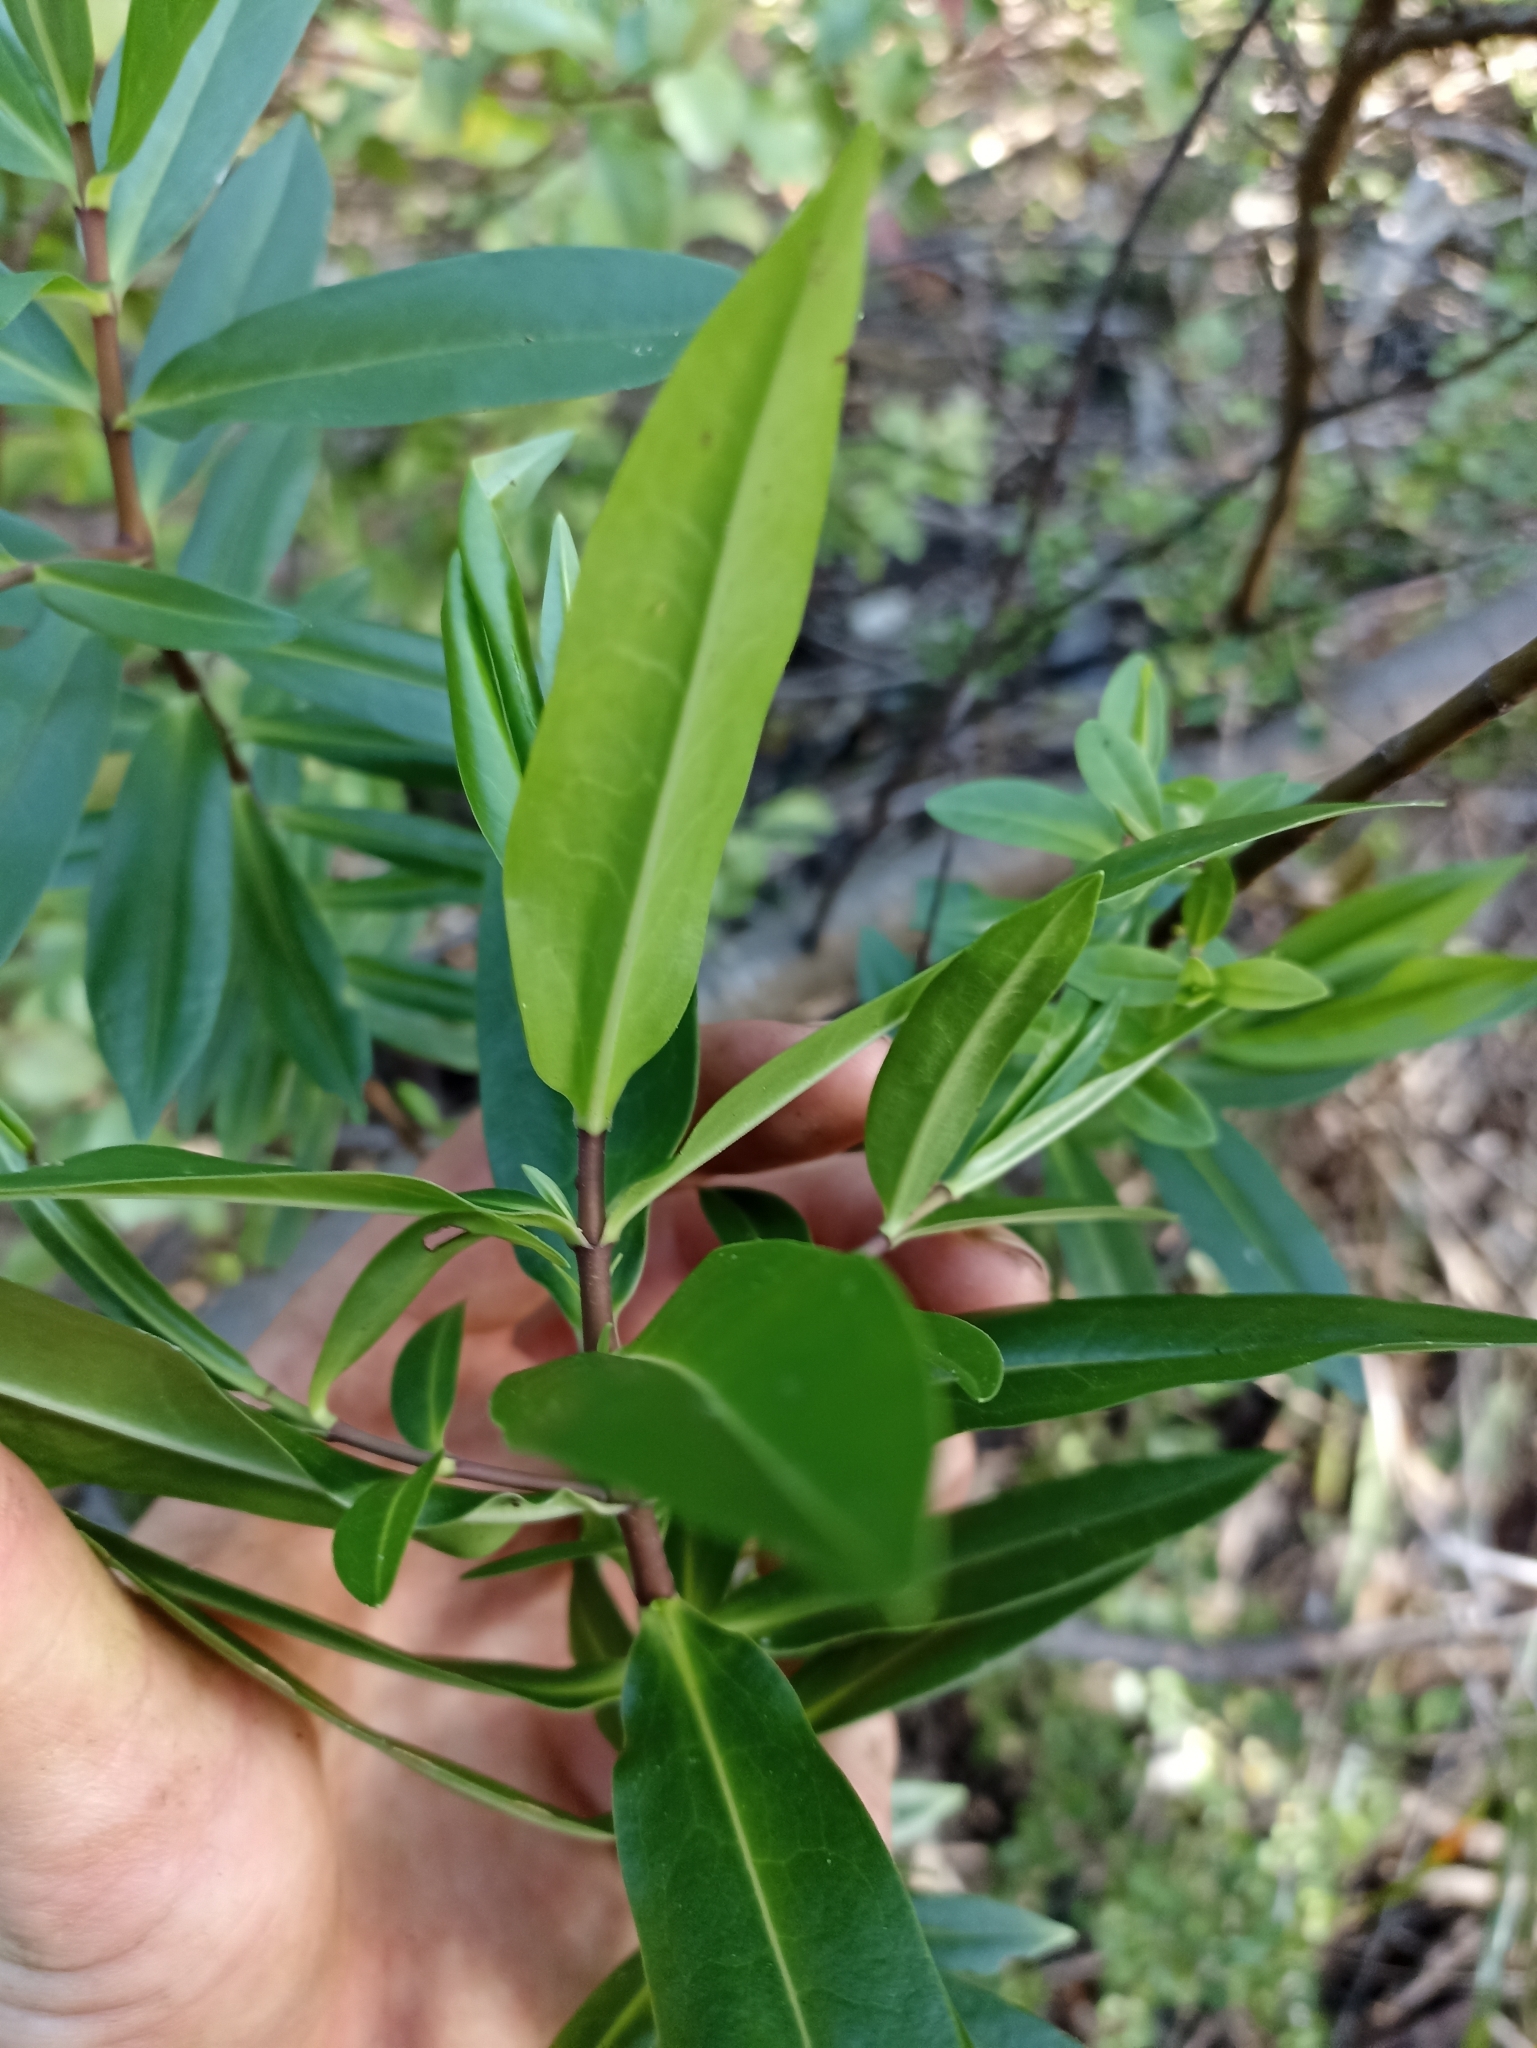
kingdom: Plantae
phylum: Tracheophyta
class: Magnoliopsida
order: Lamiales
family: Plantaginaceae
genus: Veronica
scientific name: Veronica stricta
